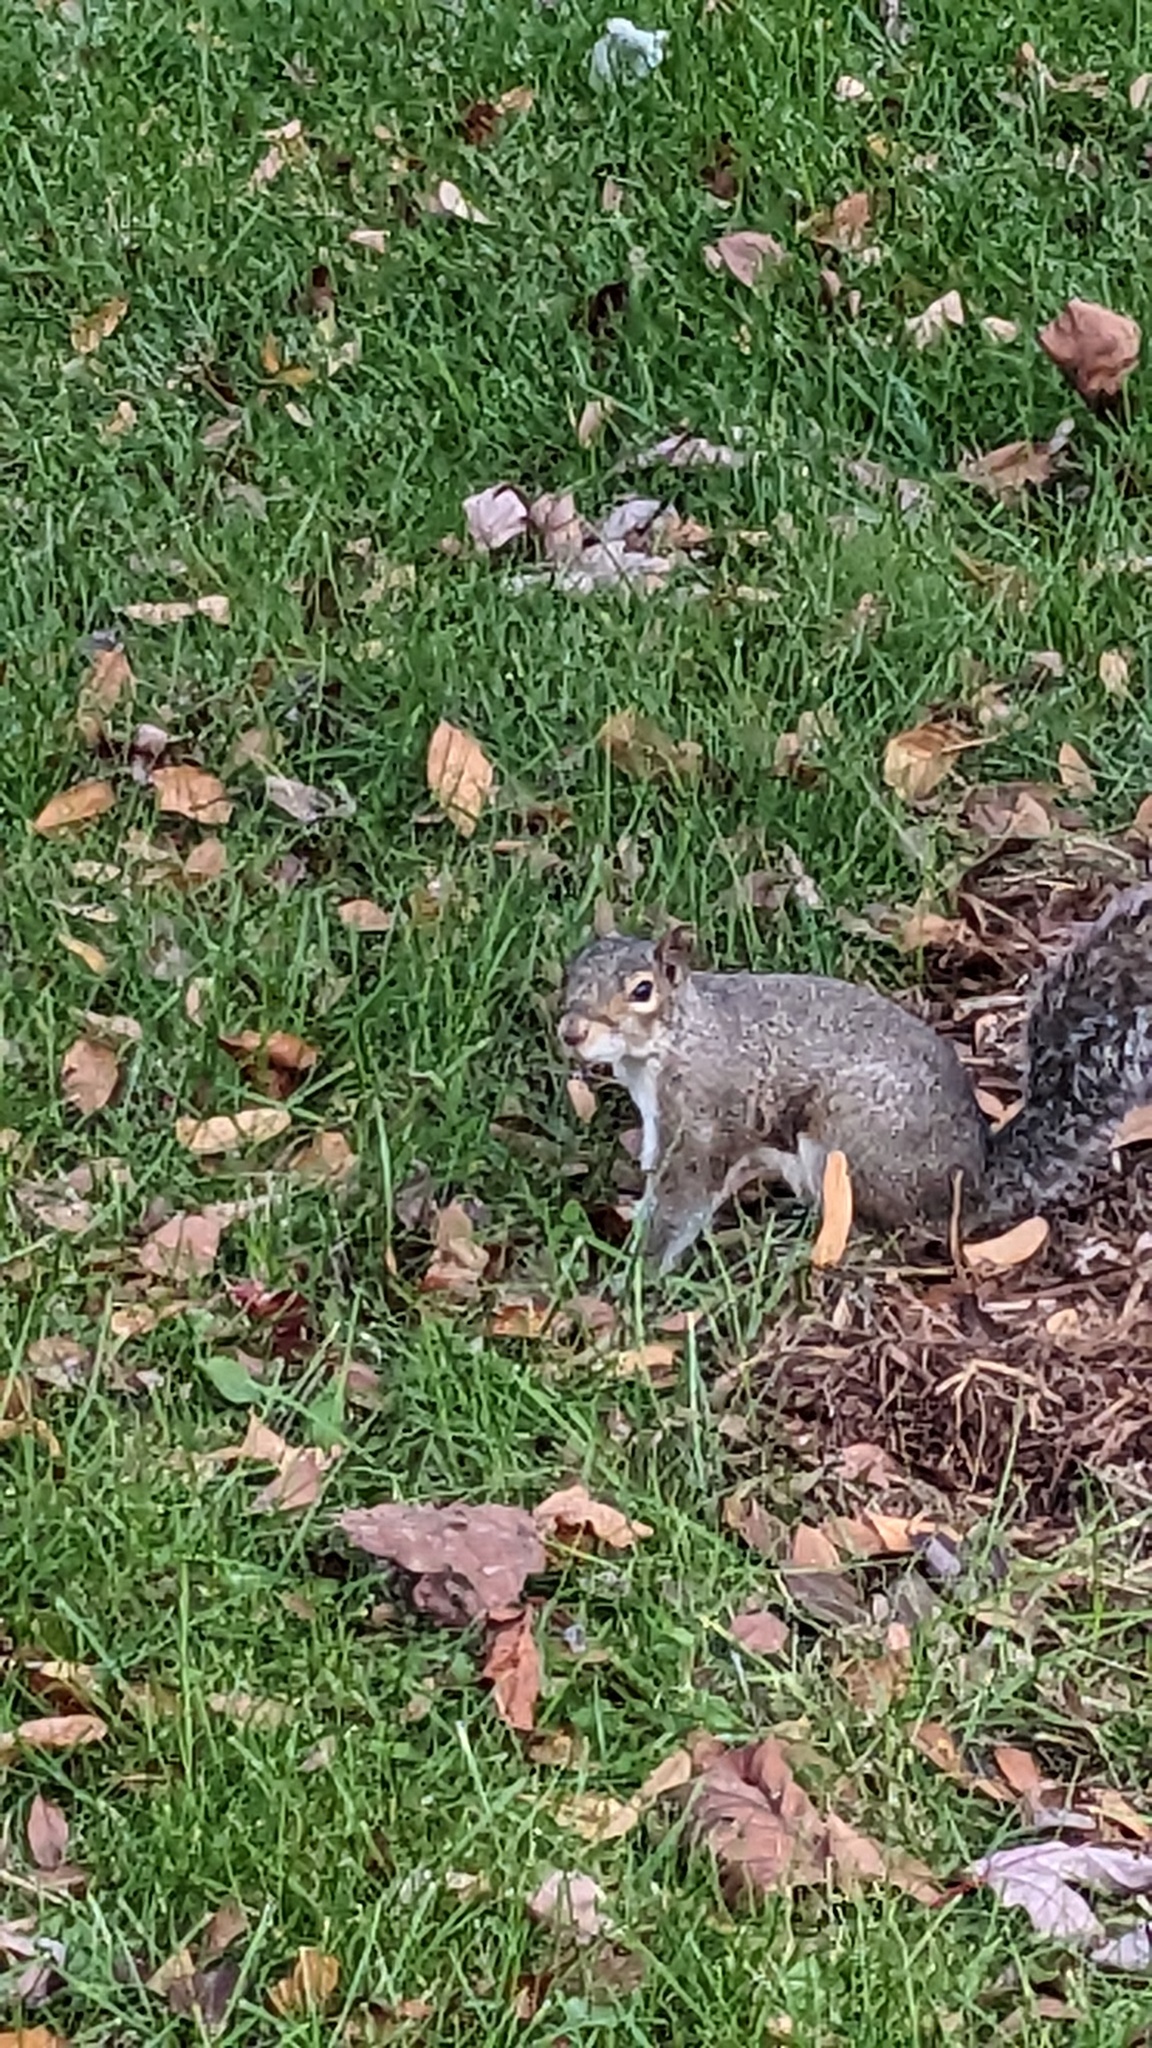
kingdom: Animalia
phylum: Chordata
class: Mammalia
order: Rodentia
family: Sciuridae
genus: Sciurus
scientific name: Sciurus carolinensis
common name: Eastern gray squirrel
